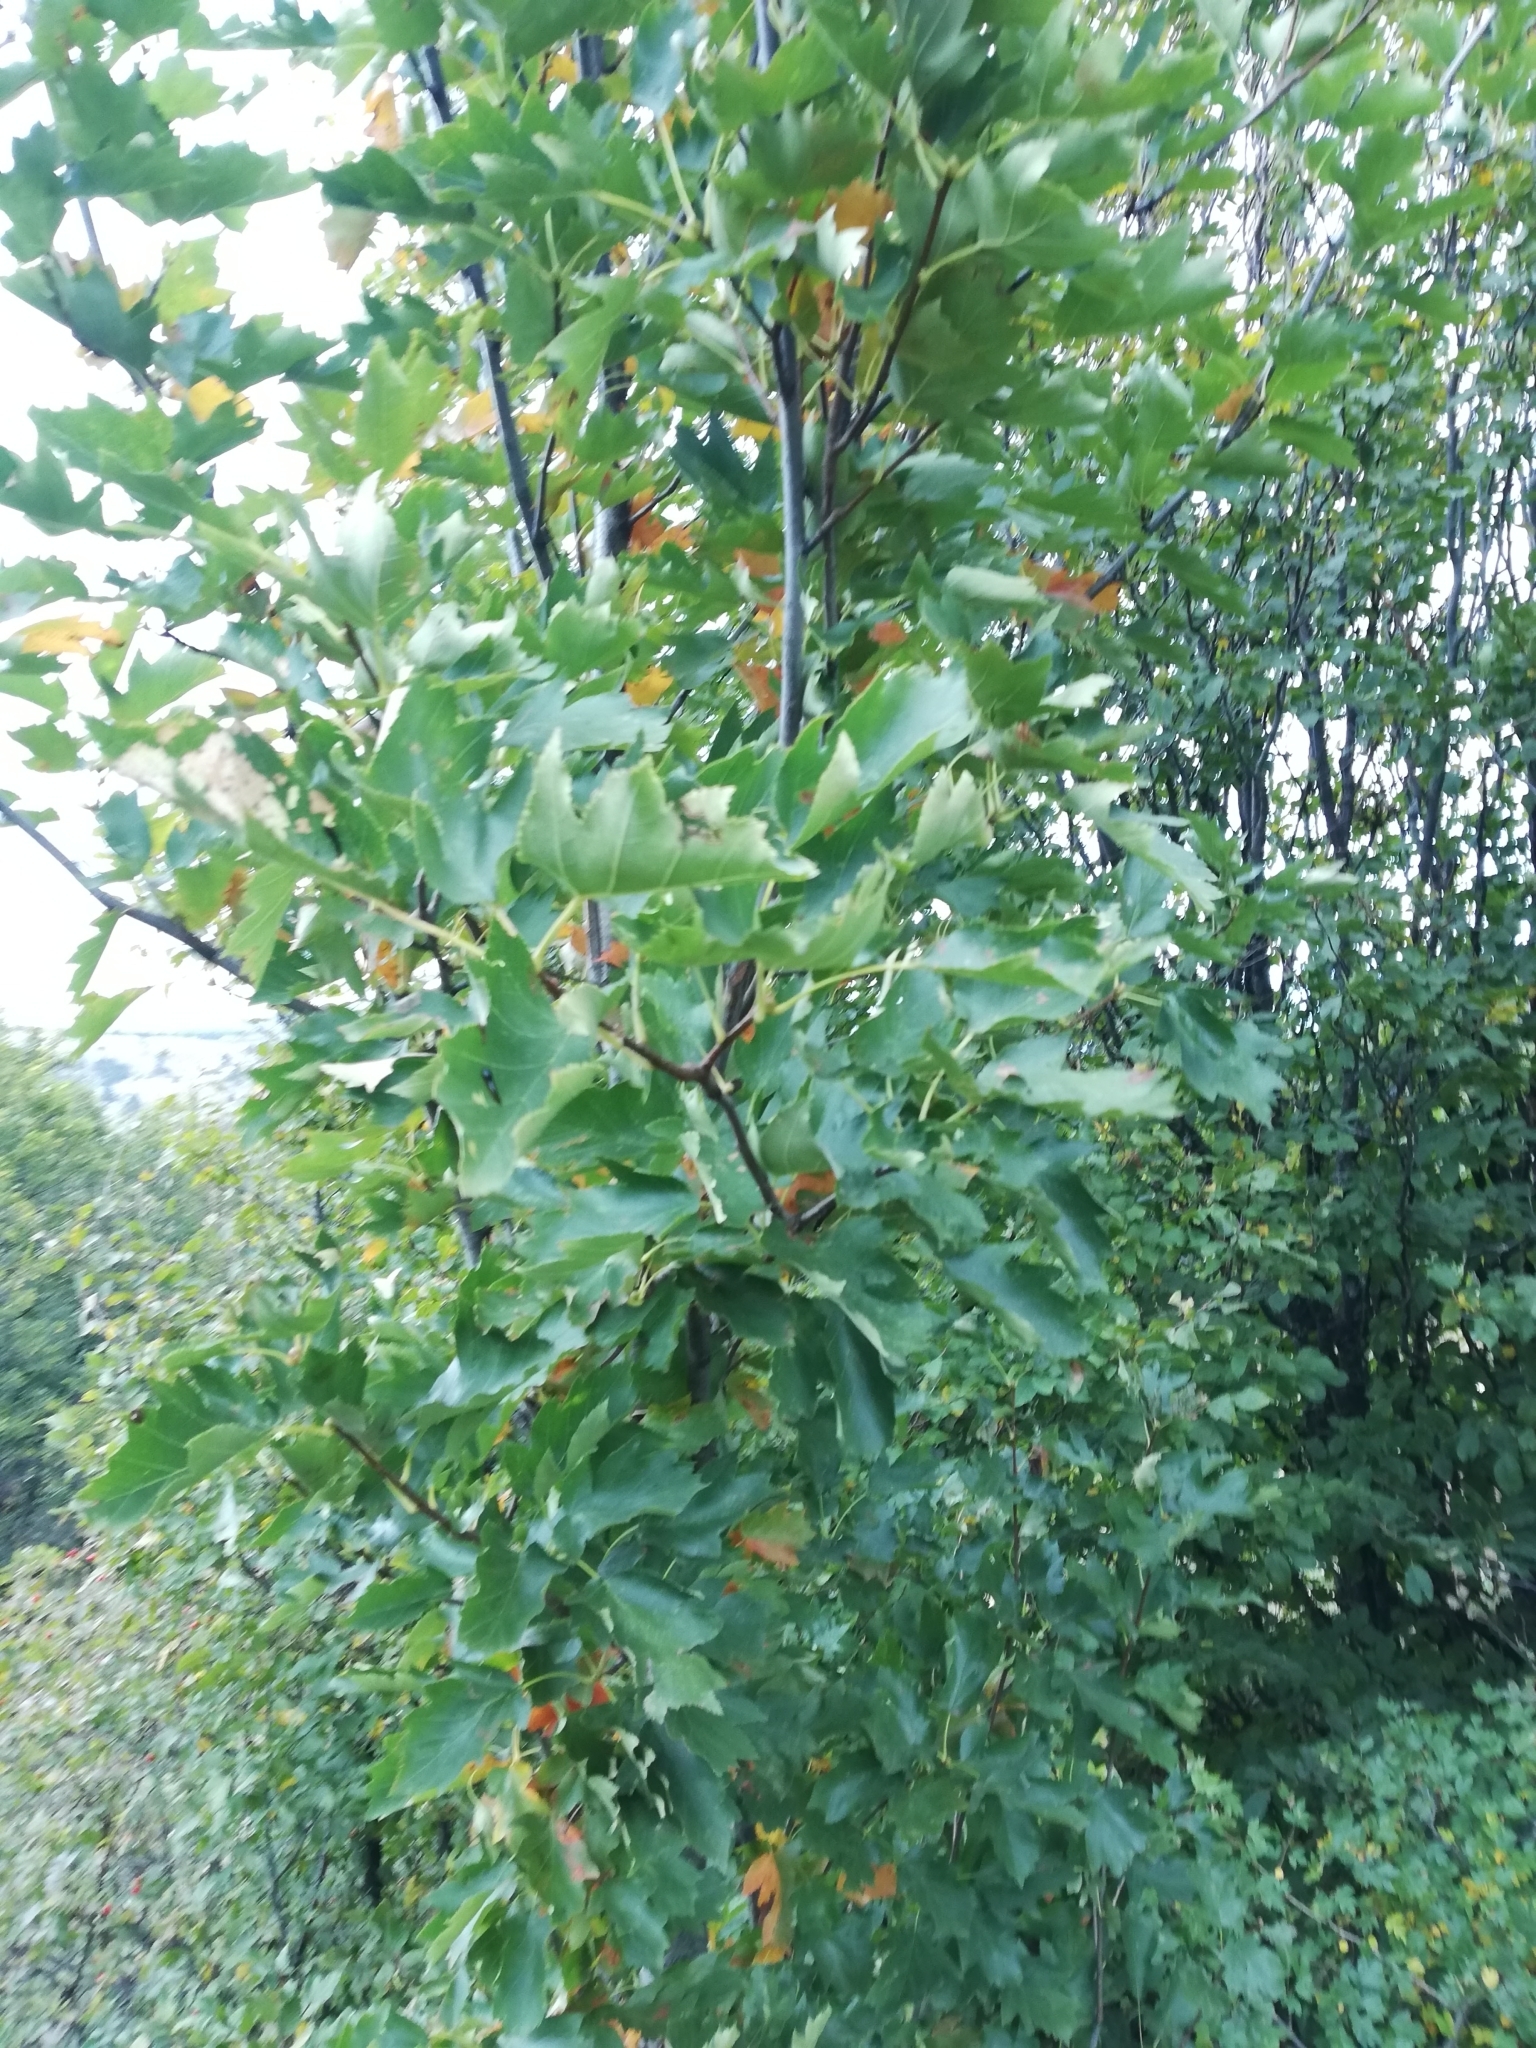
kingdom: Plantae
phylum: Tracheophyta
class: Magnoliopsida
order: Rosales
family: Rosaceae
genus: Torminalis
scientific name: Torminalis glaberrima
